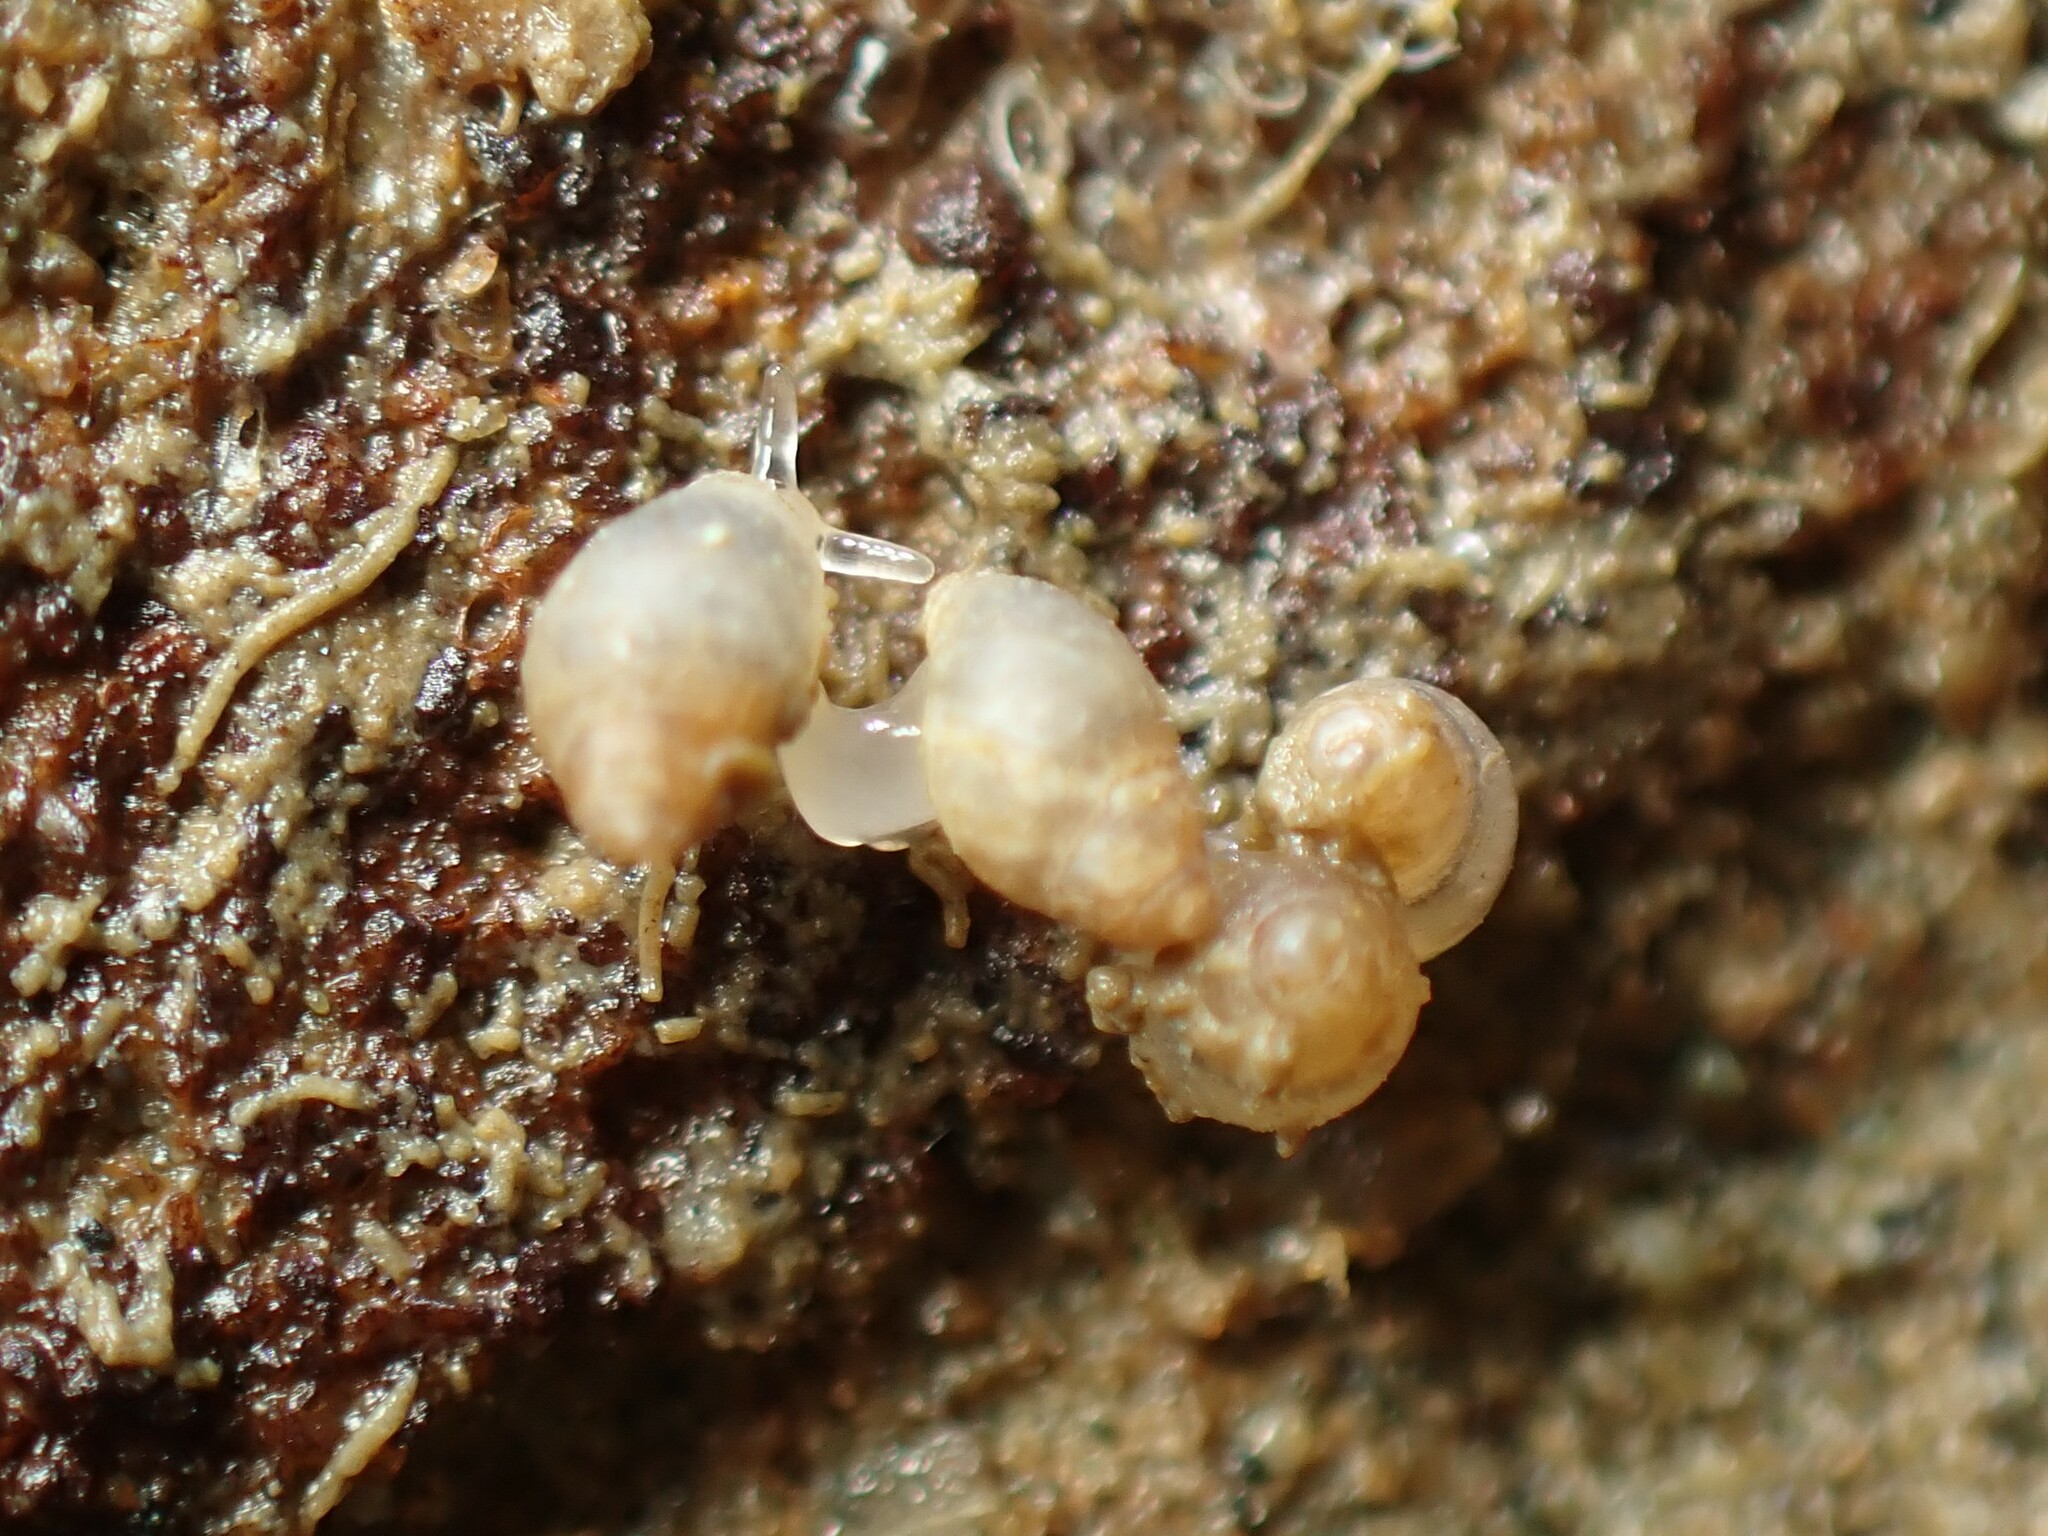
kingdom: Animalia
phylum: Mollusca
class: Gastropoda
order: Ellobiida
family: Ellobiidae
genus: Leuconopsis
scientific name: Leuconopsis obsoleta
